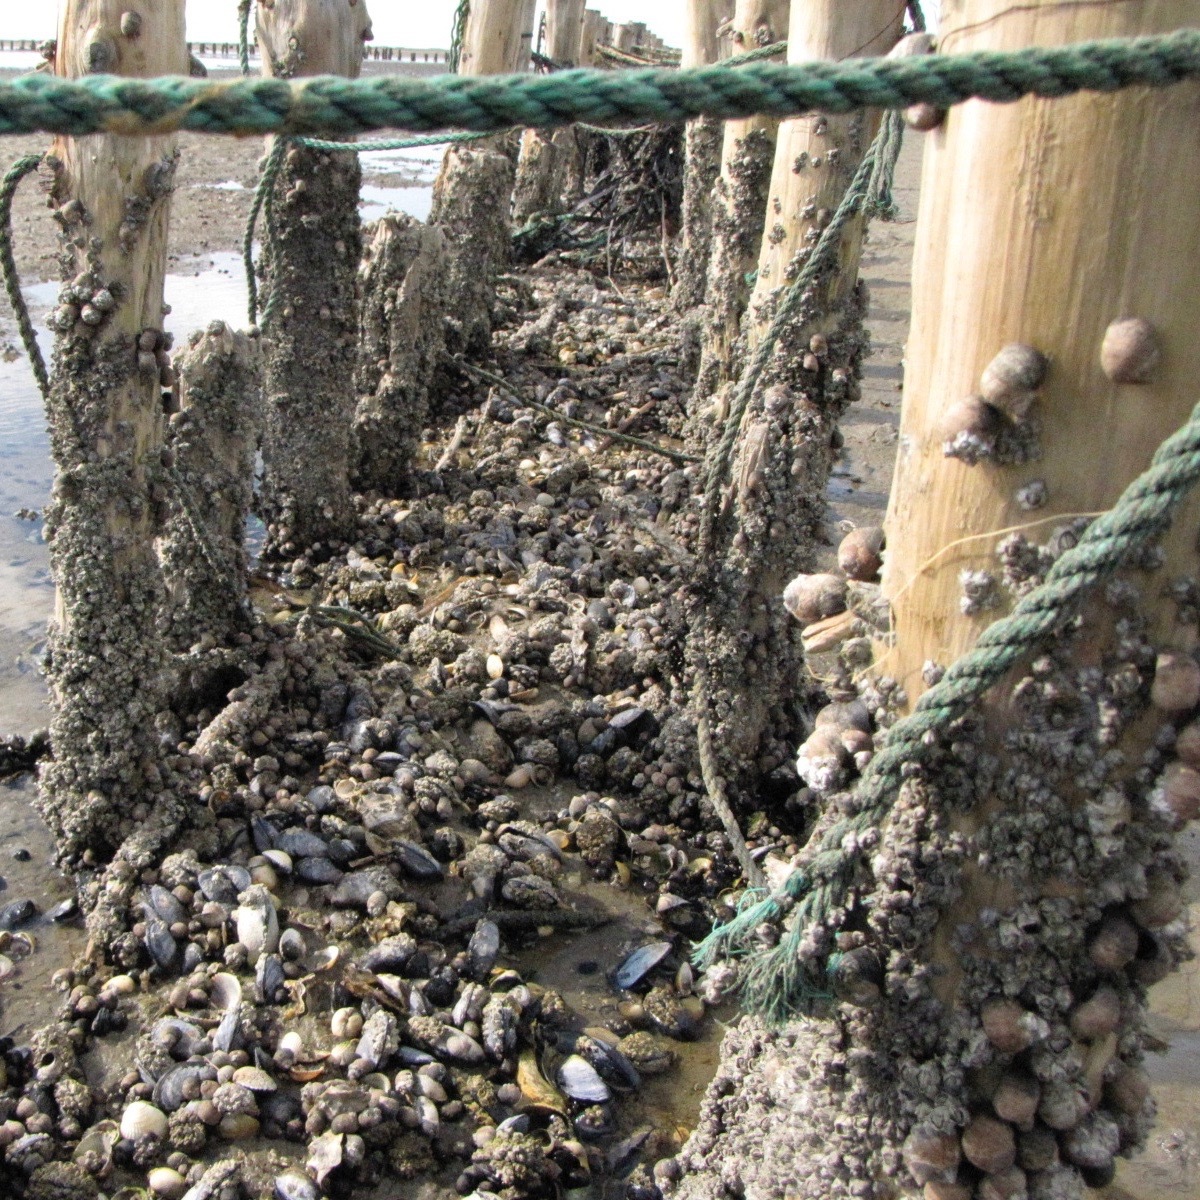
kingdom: Animalia
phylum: Mollusca
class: Gastropoda
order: Littorinimorpha
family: Littorinidae
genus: Littorina
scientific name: Littorina littorea
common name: Common periwinkle
